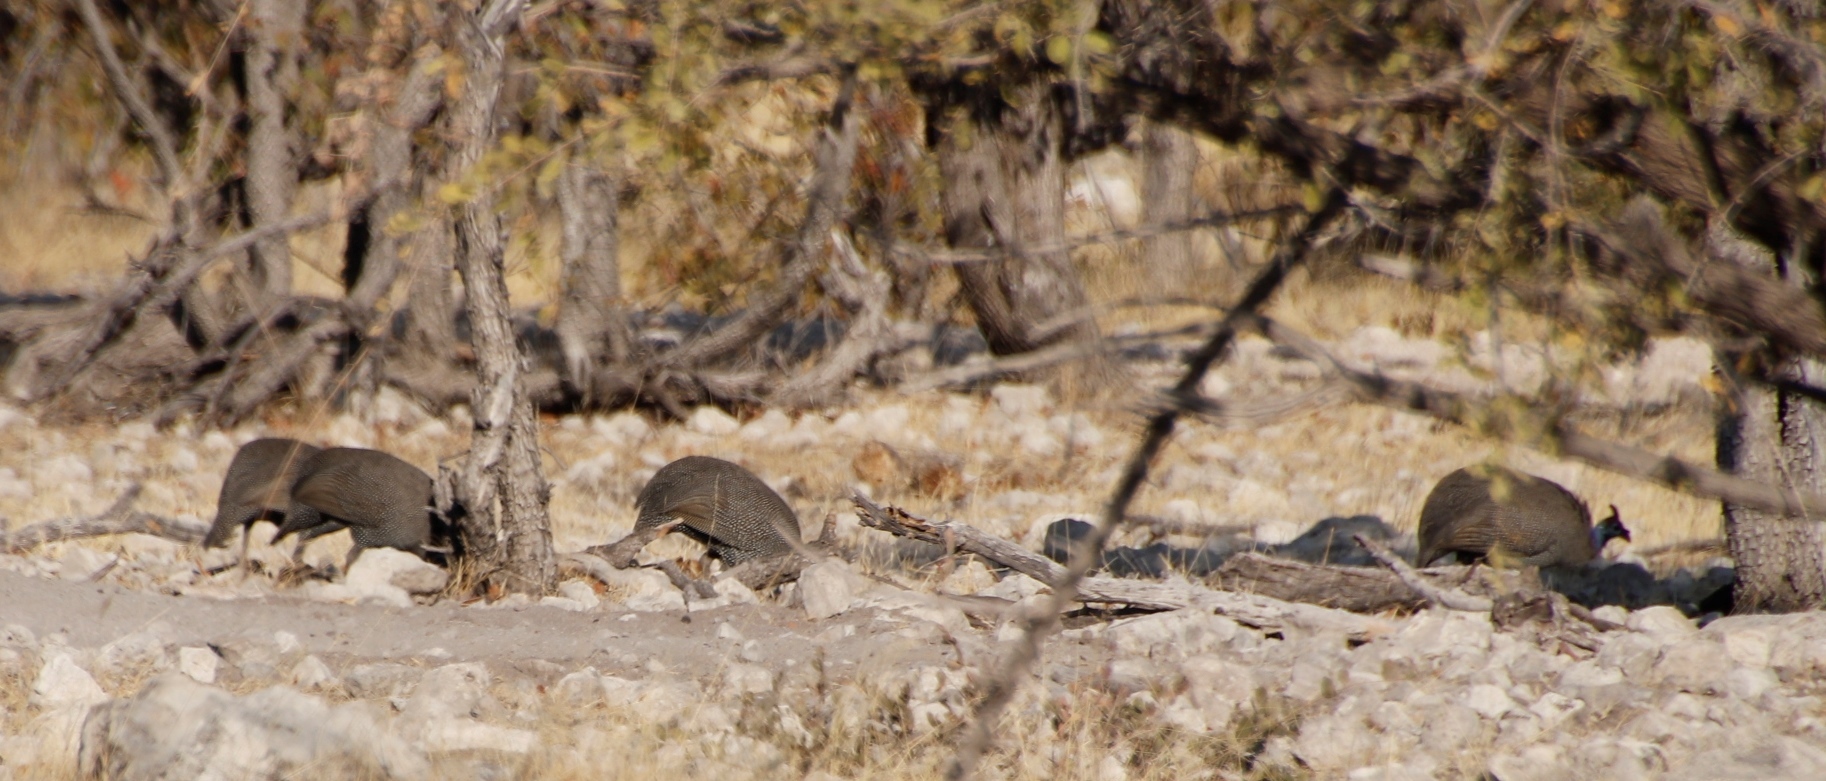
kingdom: Animalia
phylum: Chordata
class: Aves
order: Galliformes
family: Numididae
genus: Numida
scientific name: Numida meleagris
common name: Helmeted guineafowl
